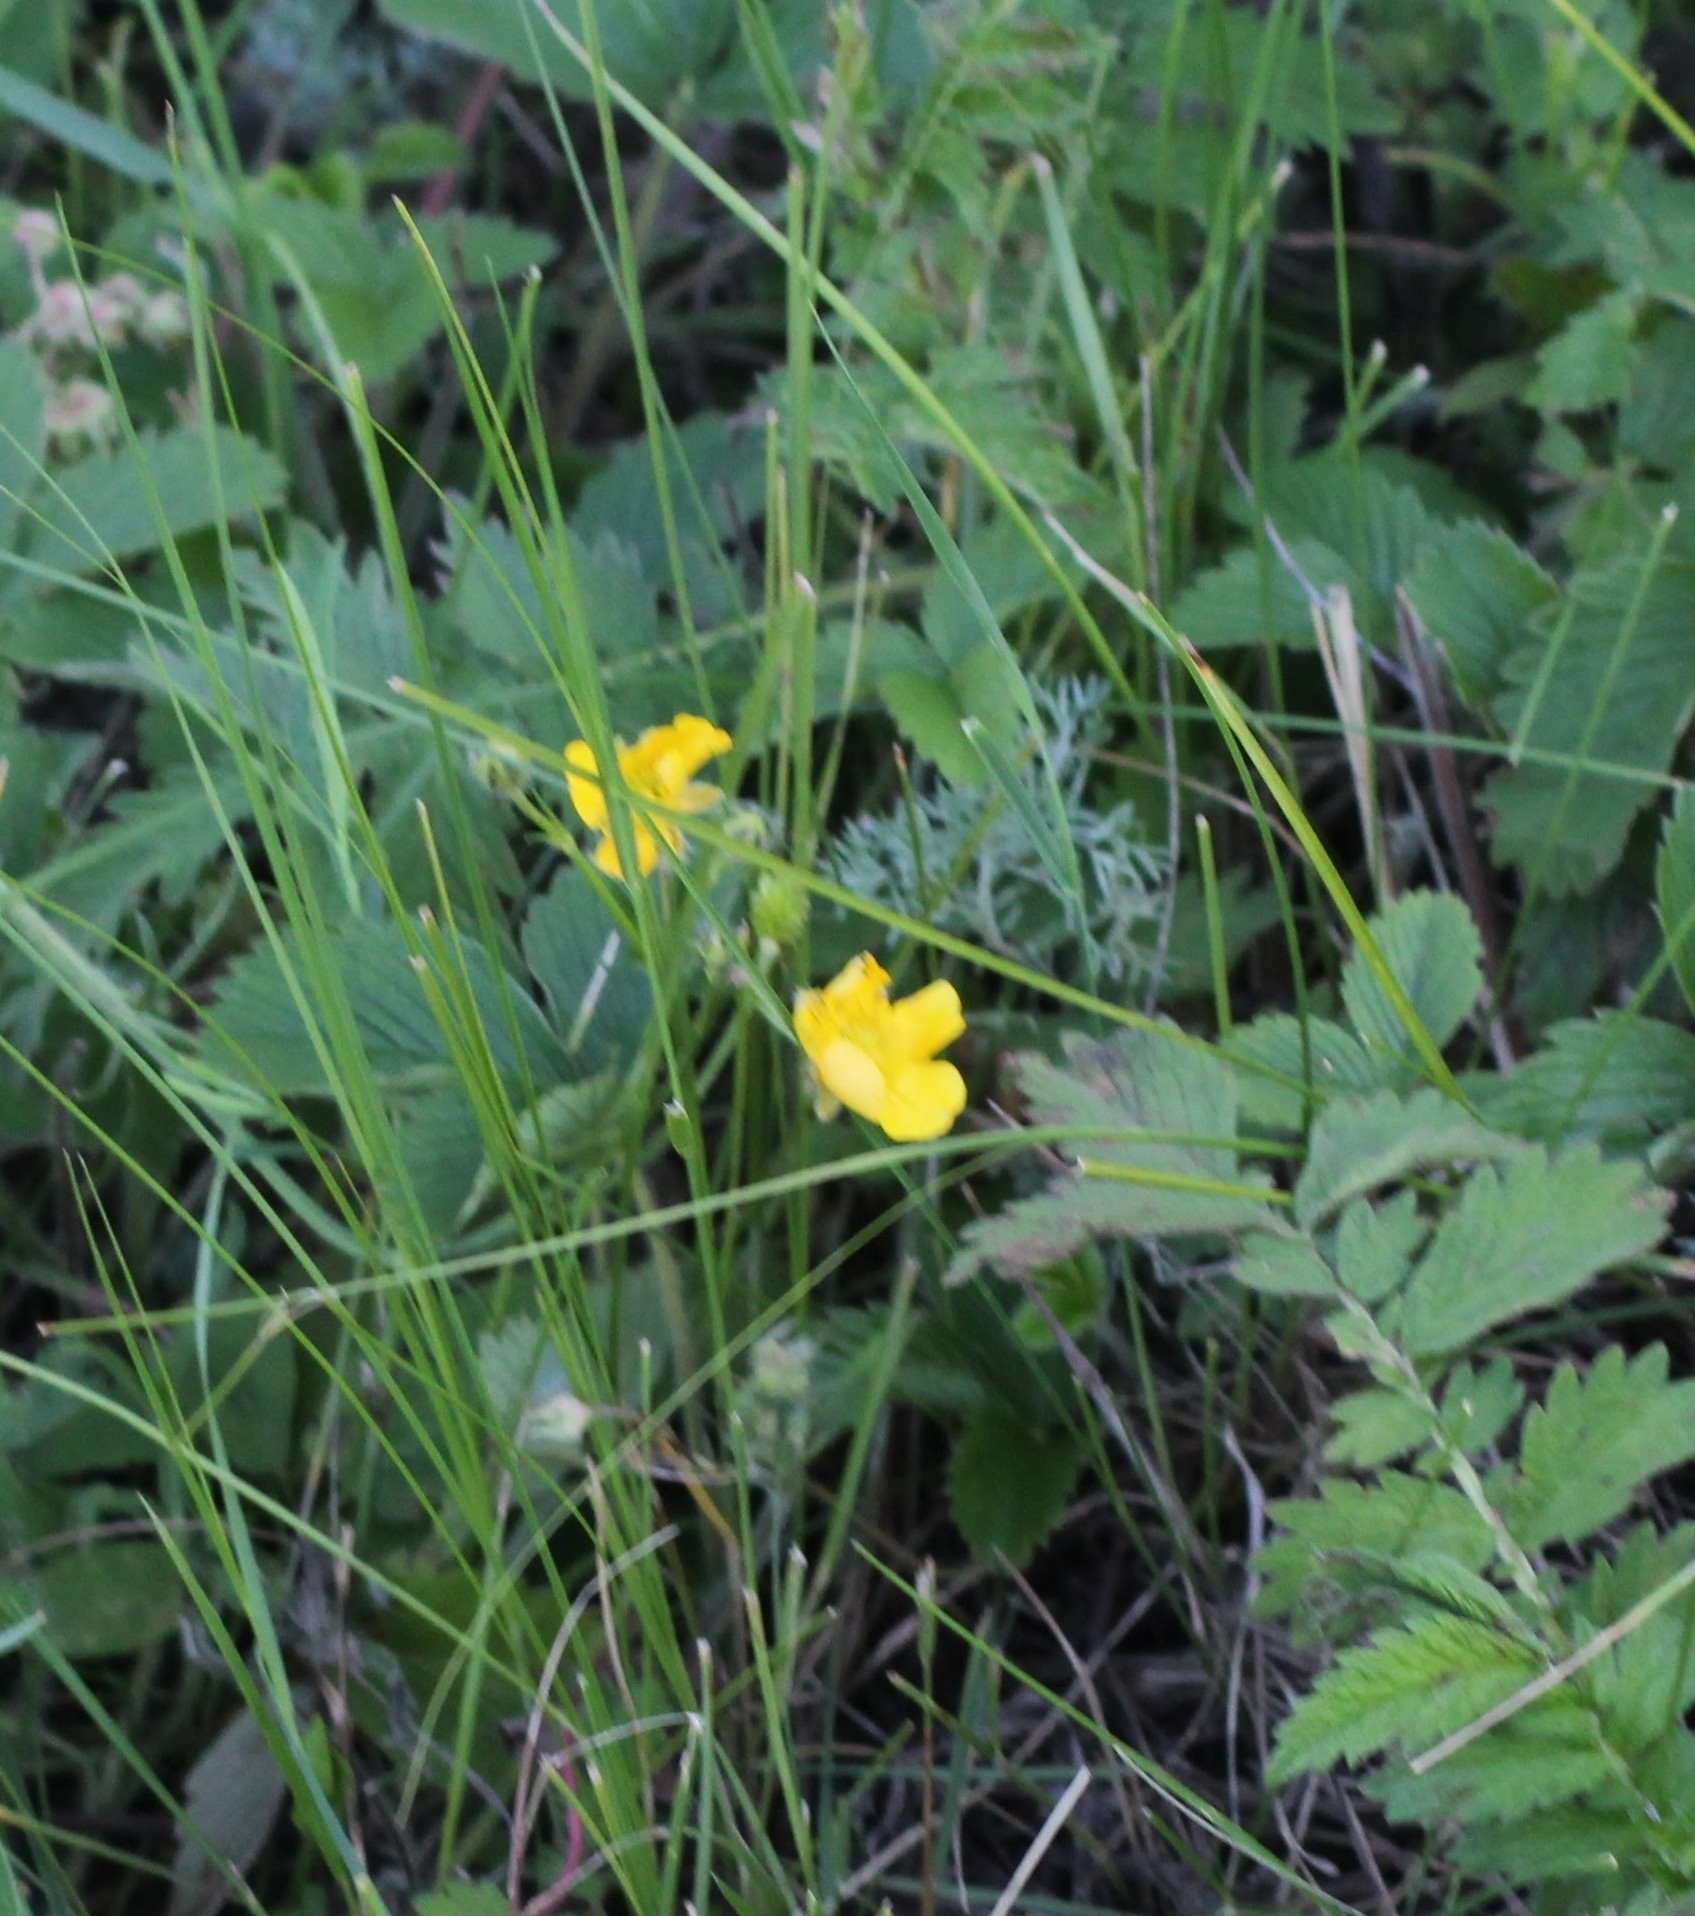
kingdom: Plantae
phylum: Tracheophyta
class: Magnoliopsida
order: Ranunculales
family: Ranunculaceae
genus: Ranunculus
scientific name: Ranunculus polyanthemos
